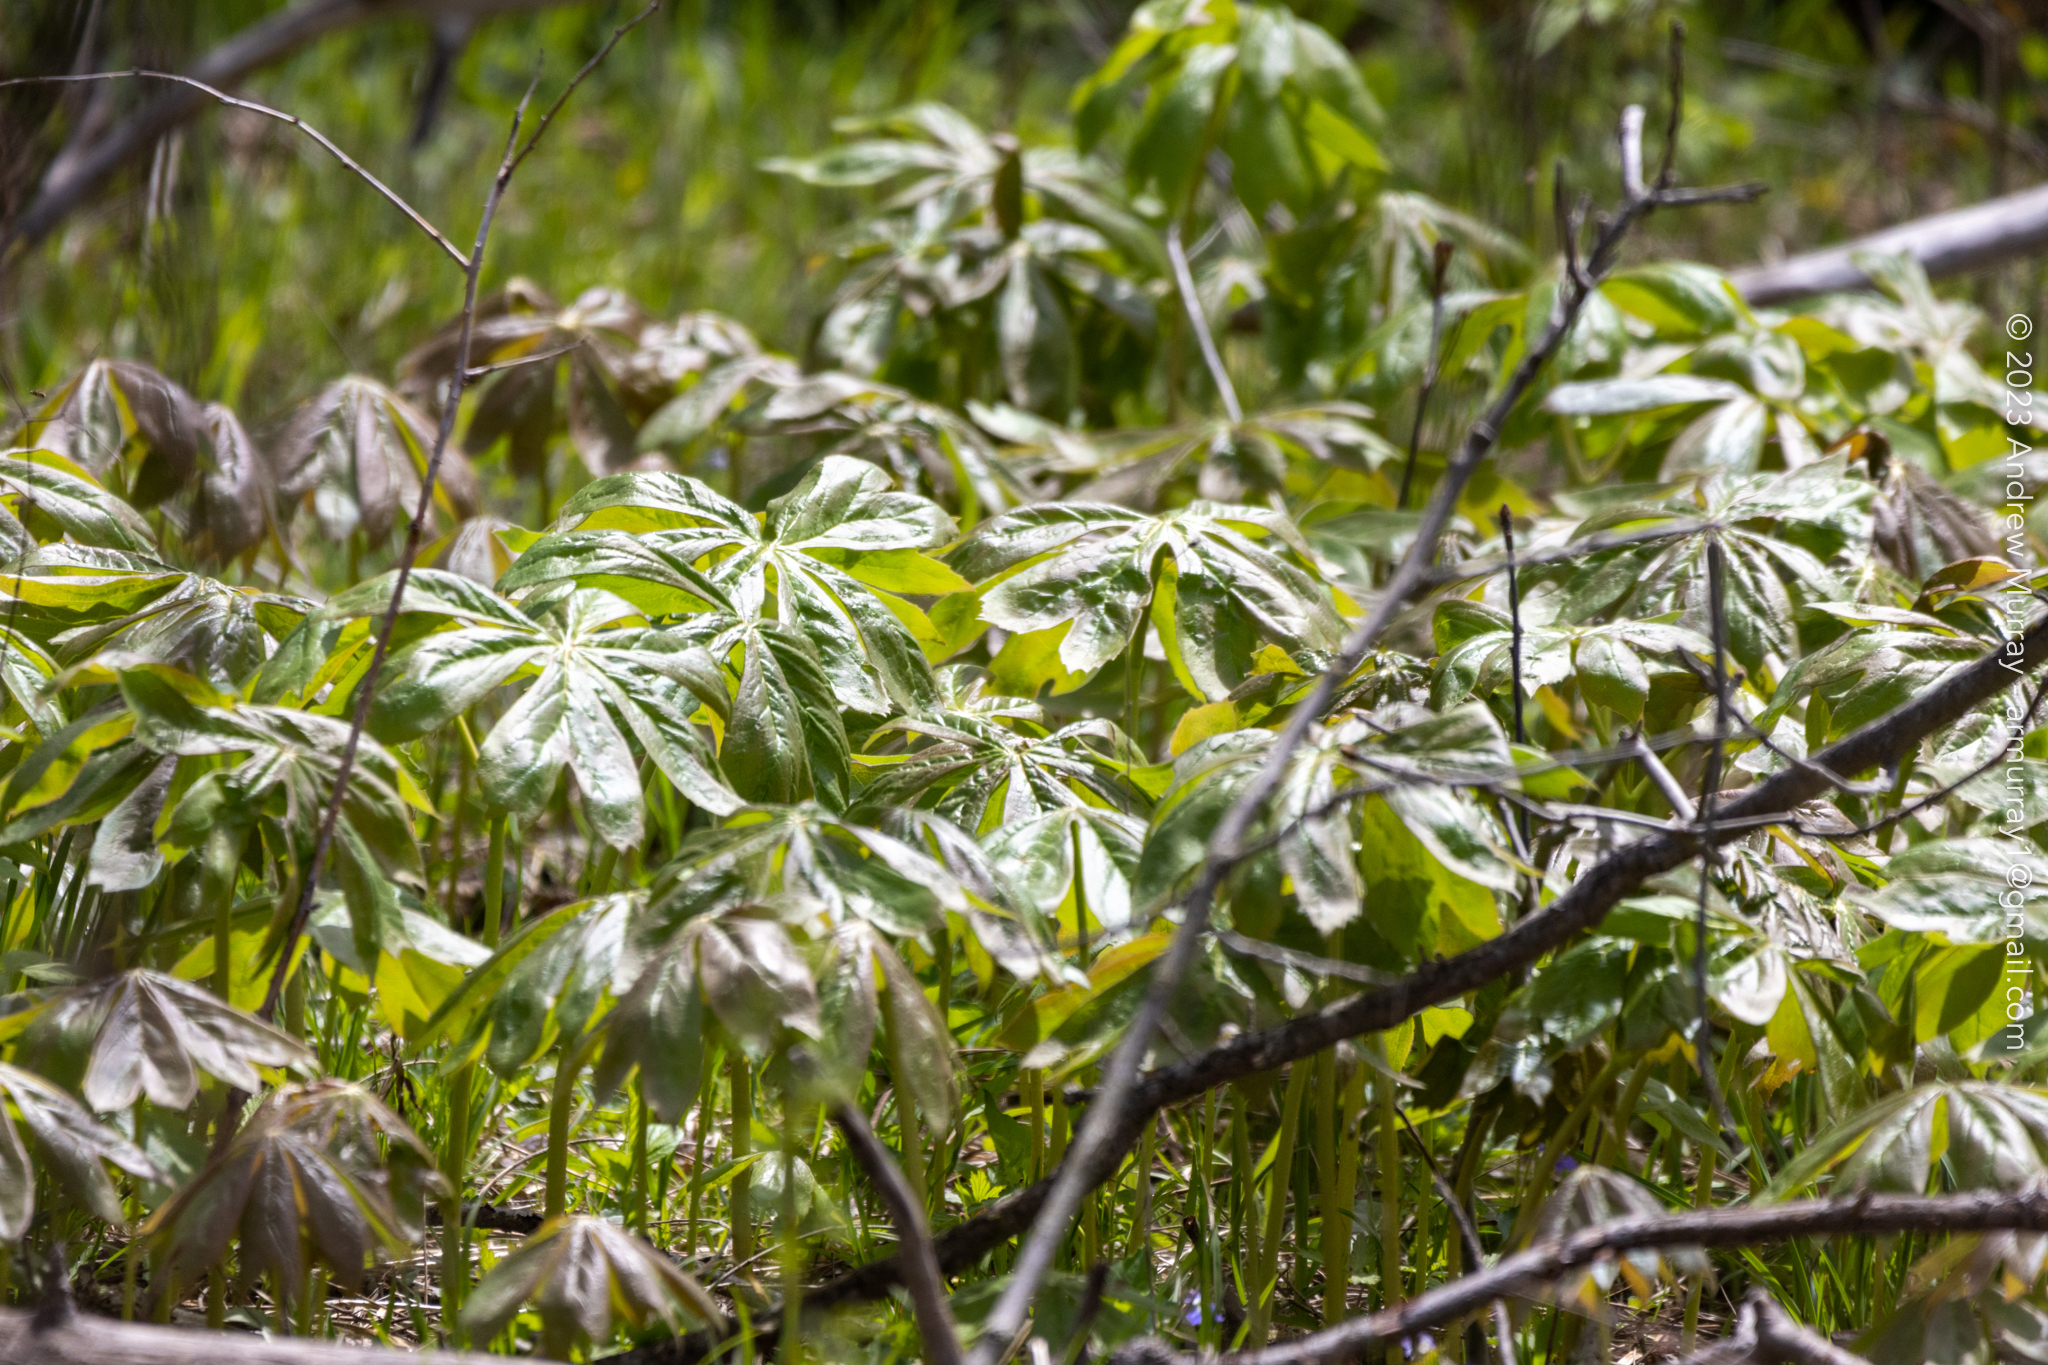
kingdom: Plantae
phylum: Tracheophyta
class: Magnoliopsida
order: Ranunculales
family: Berberidaceae
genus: Podophyllum
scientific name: Podophyllum peltatum
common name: Wild mandrake
